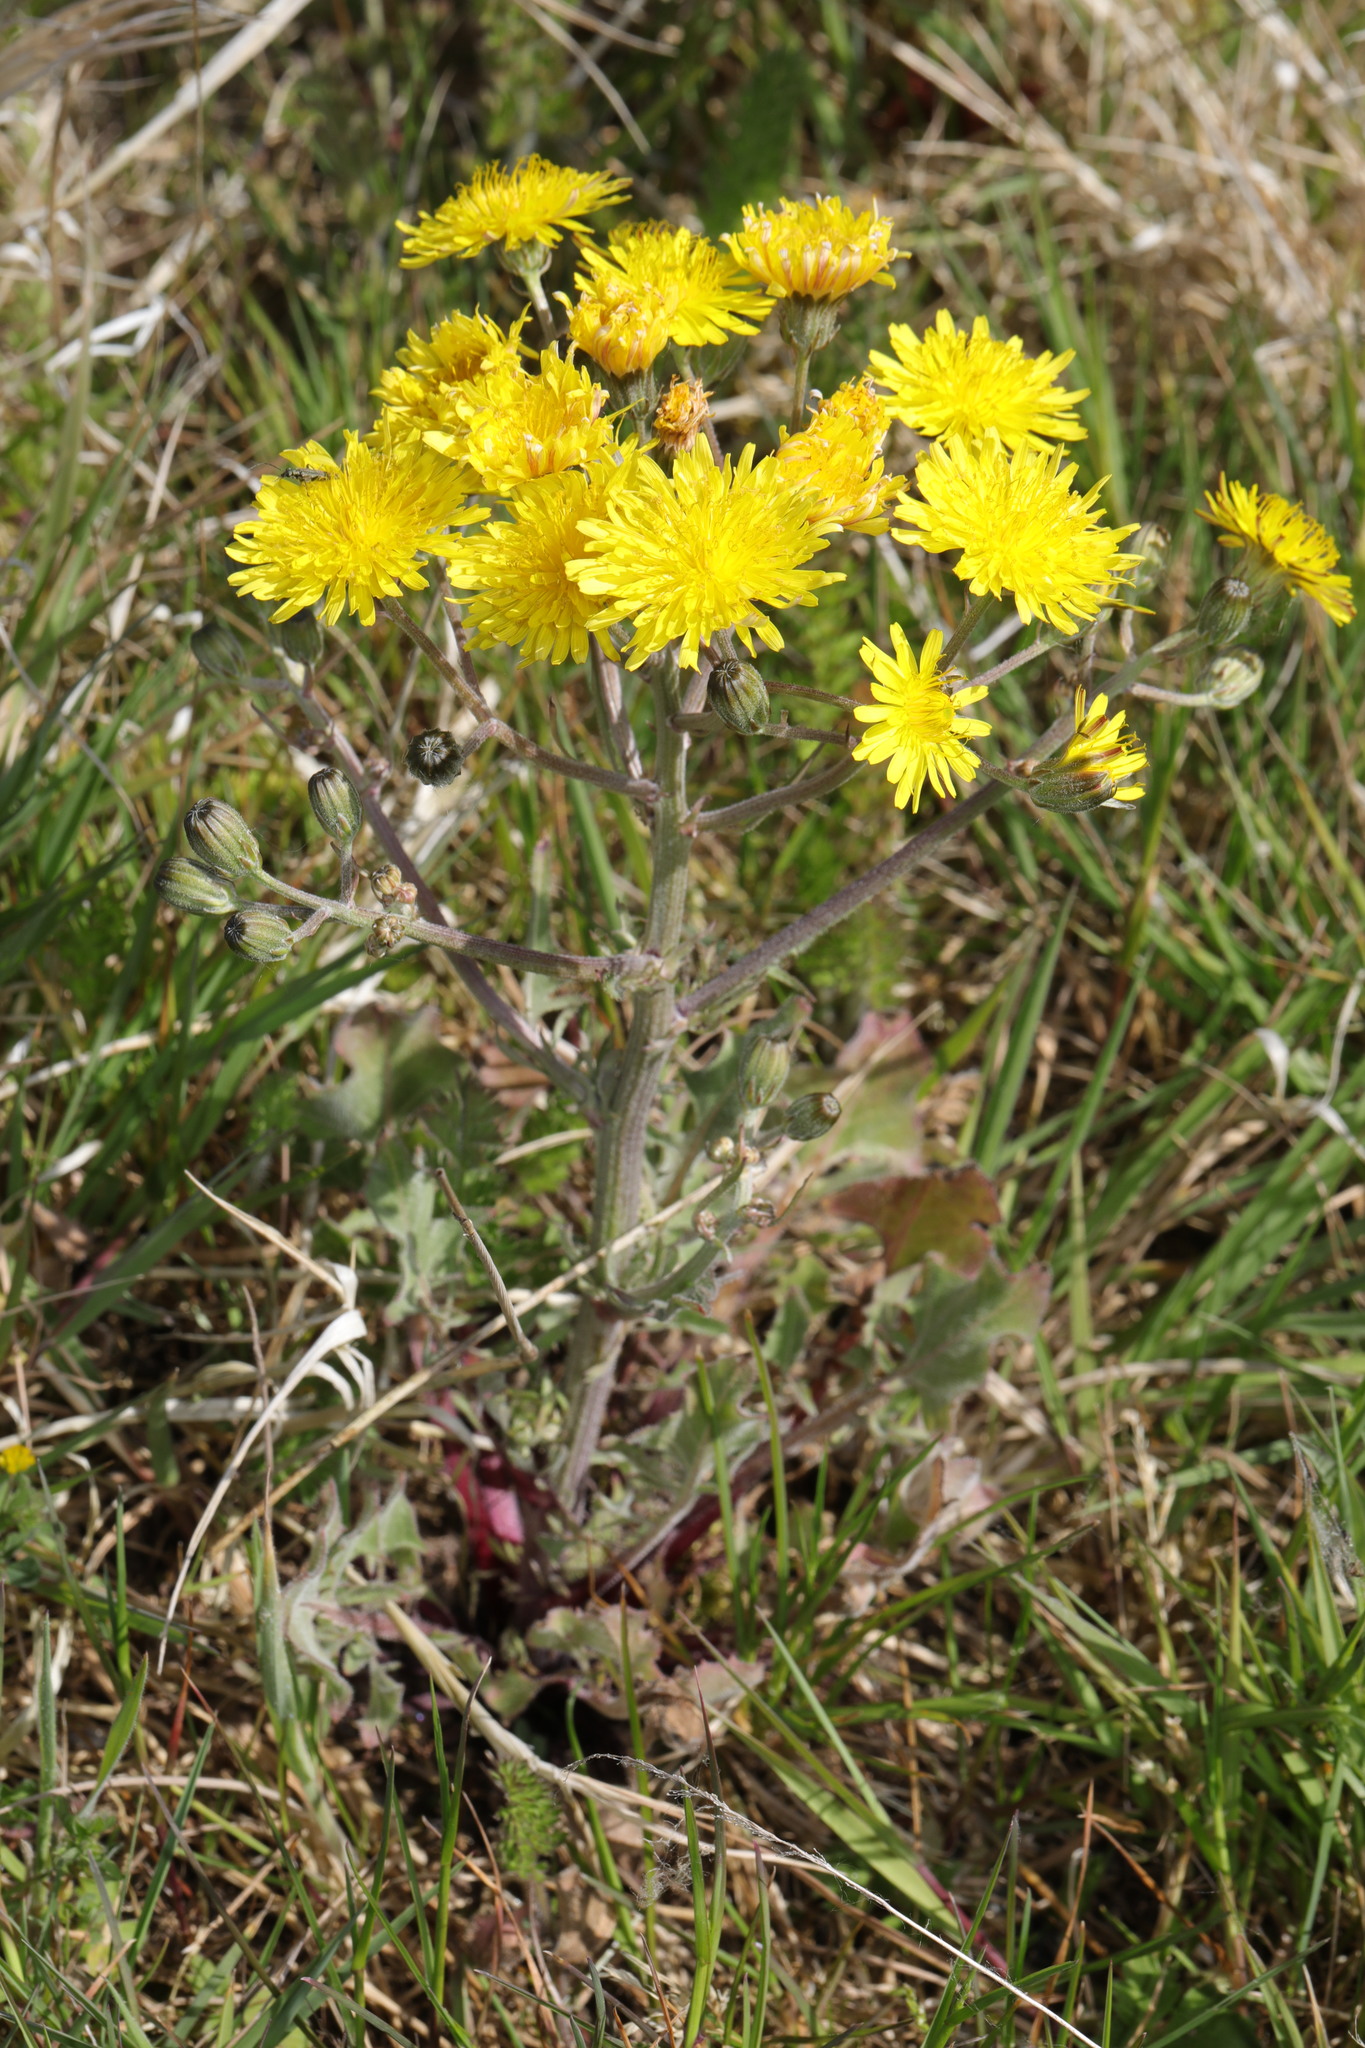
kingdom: Plantae
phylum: Tracheophyta
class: Magnoliopsida
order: Asterales
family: Asteraceae
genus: Crepis
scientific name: Crepis vesicaria
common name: Beaked hawksbeard
